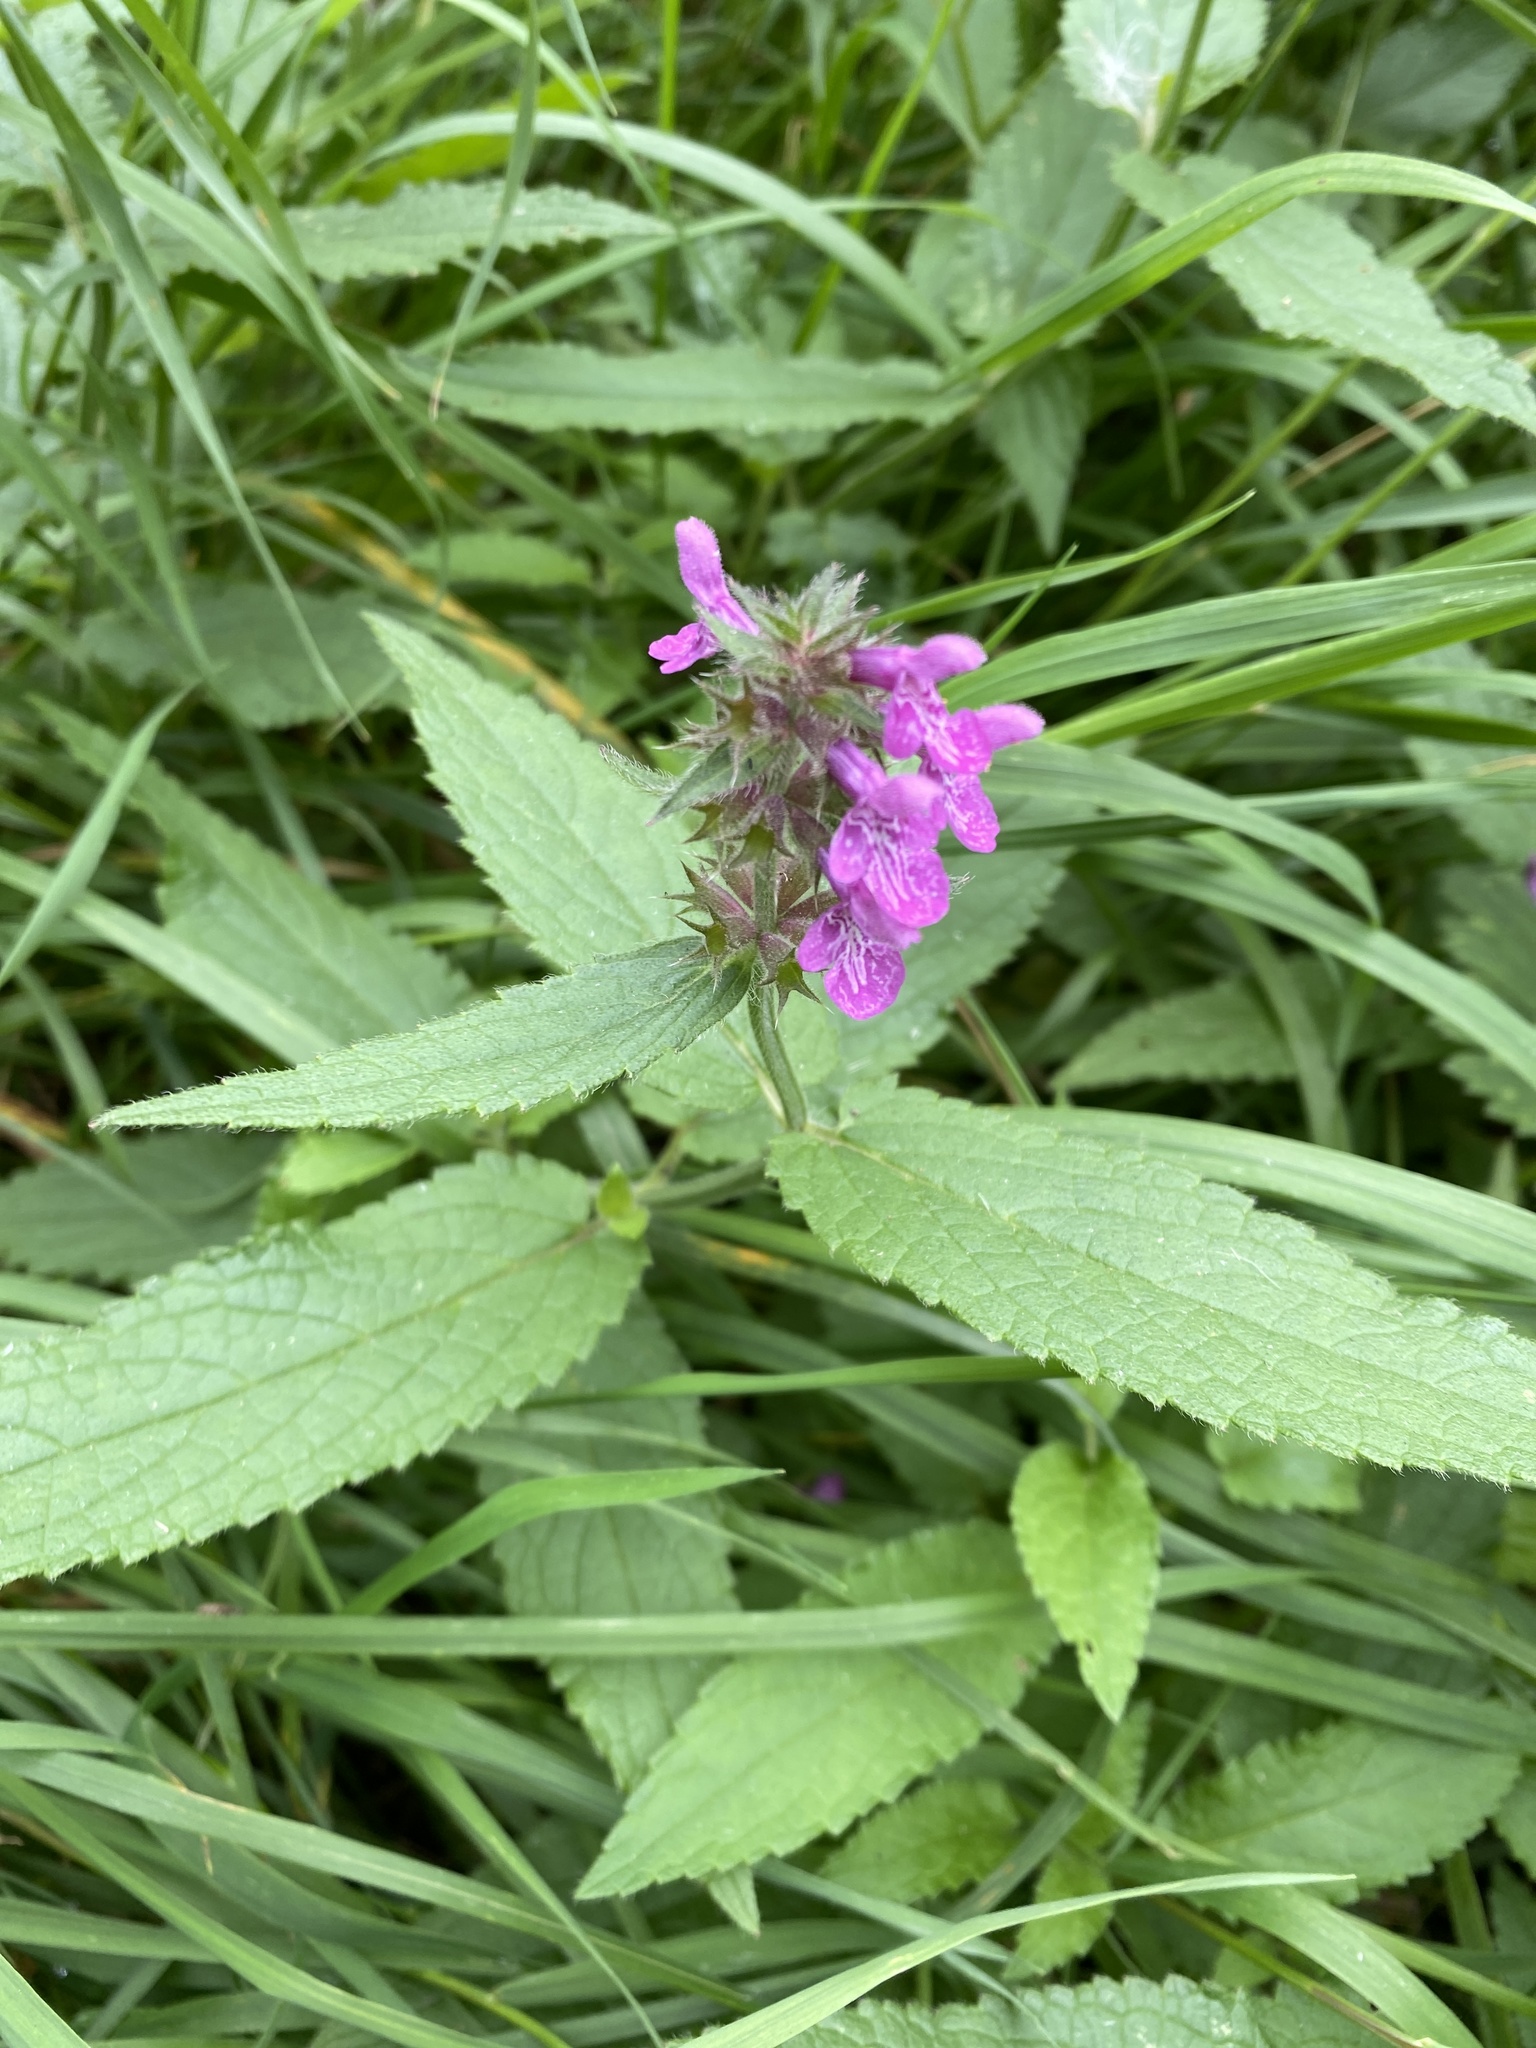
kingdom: Plantae
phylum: Tracheophyta
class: Magnoliopsida
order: Lamiales
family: Lamiaceae
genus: Stachys
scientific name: Stachys palustris
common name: Marsh woundwort
